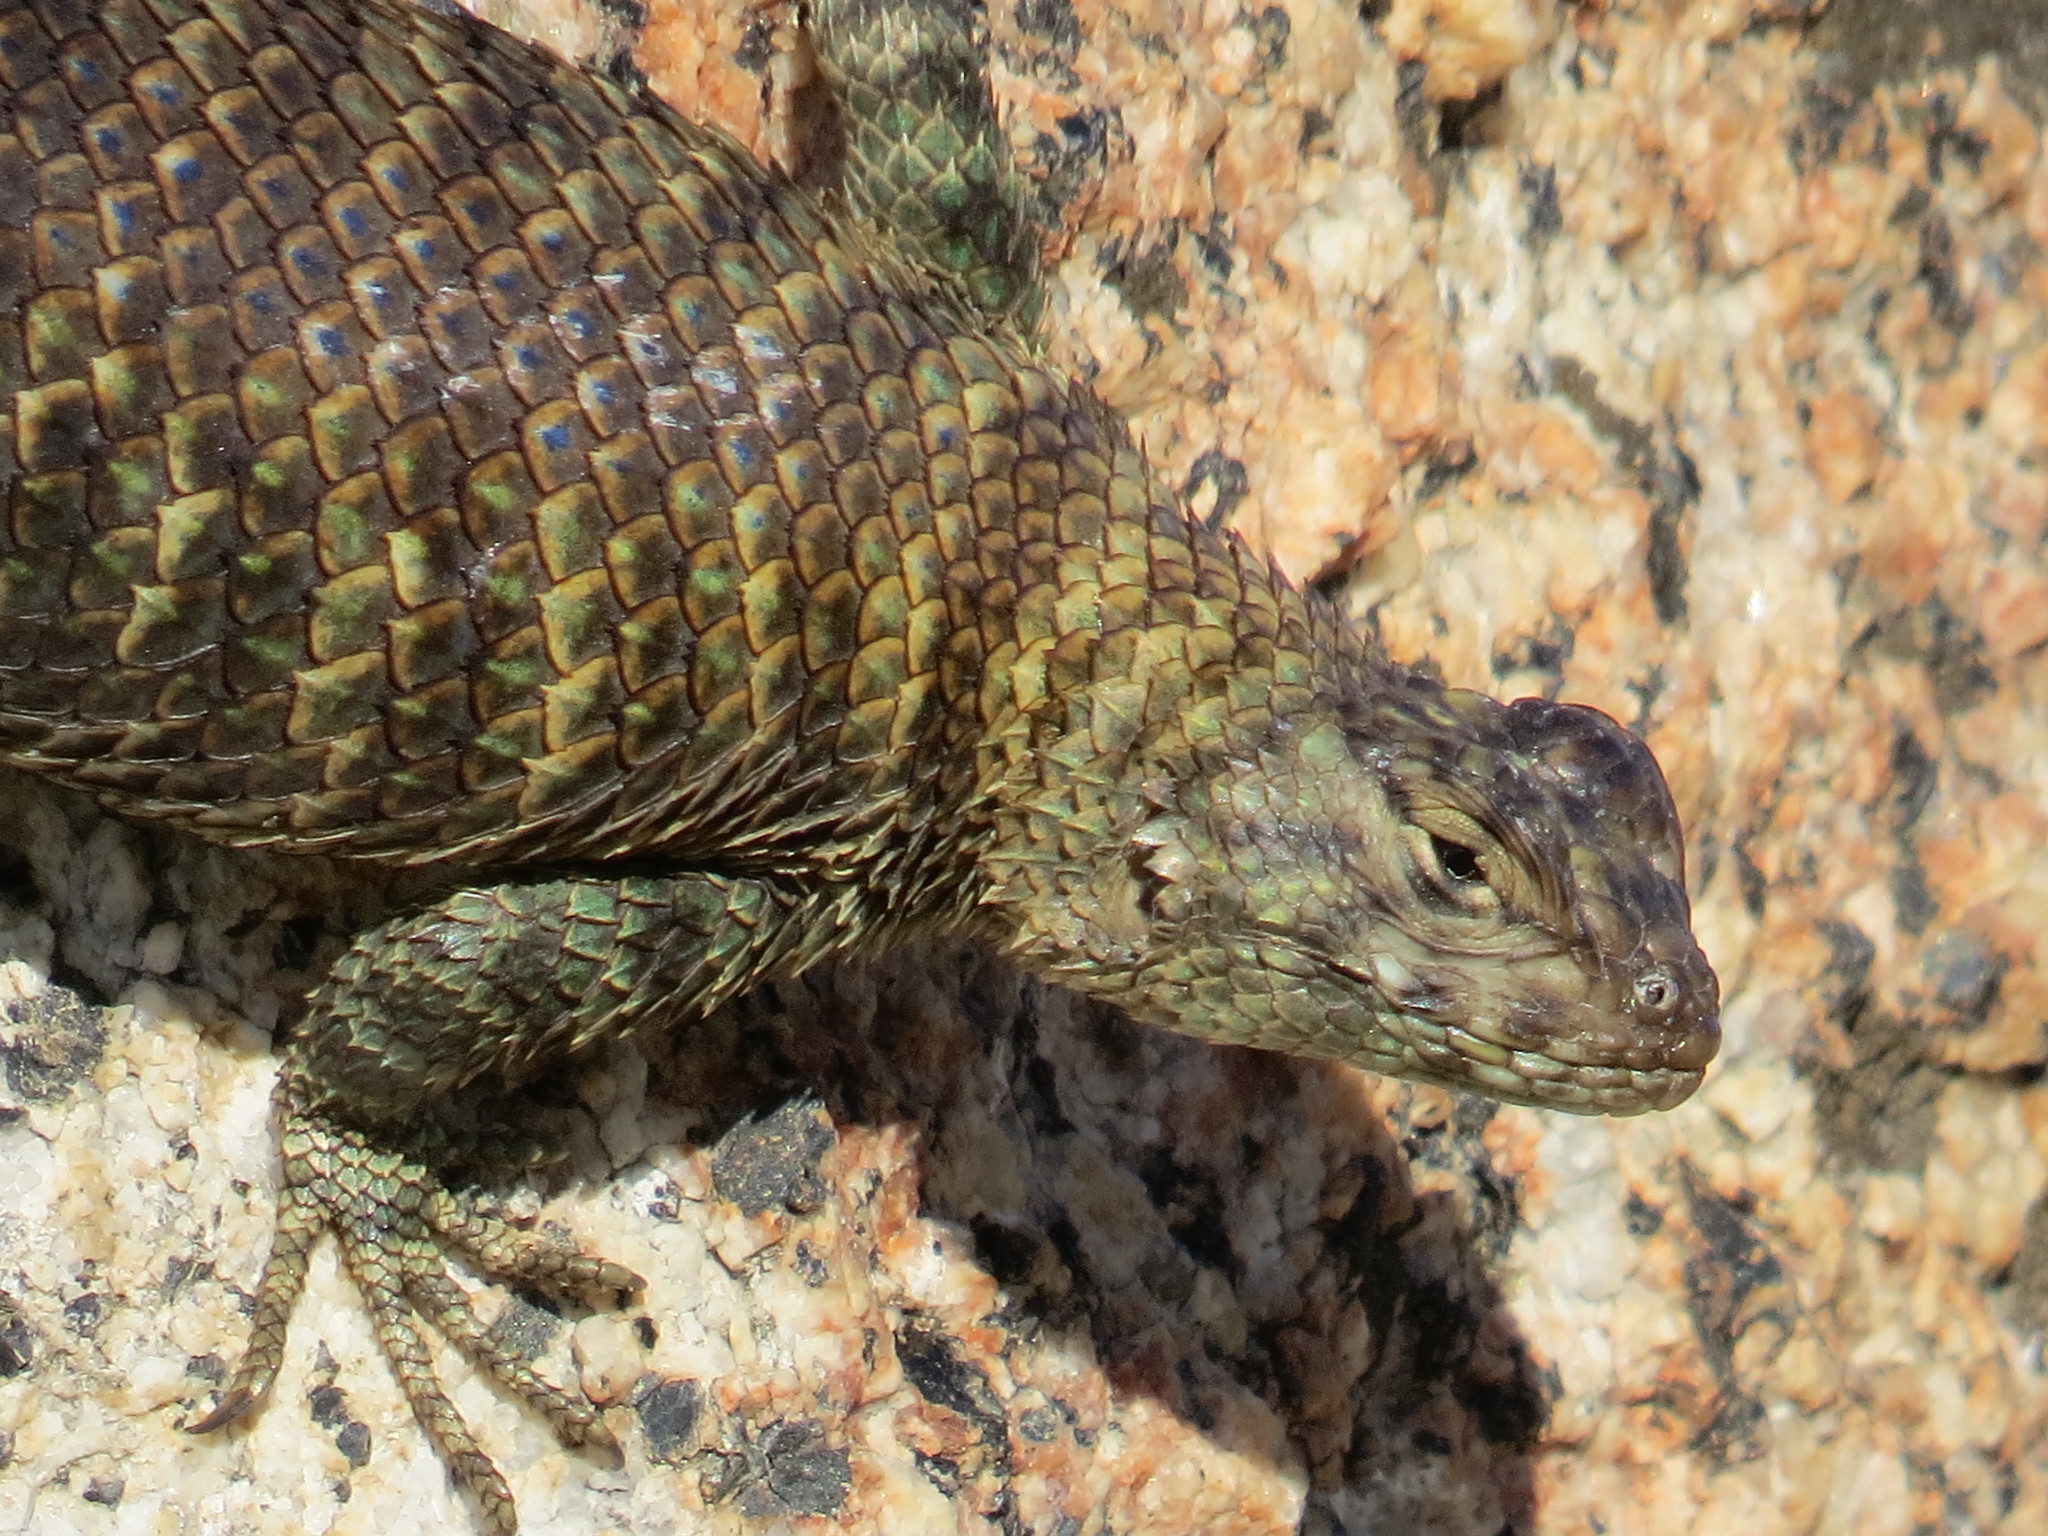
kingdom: Animalia
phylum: Chordata
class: Squamata
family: Phrynosomatidae
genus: Sceloporus
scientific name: Sceloporus orcutti
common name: Granite spiny lizard
